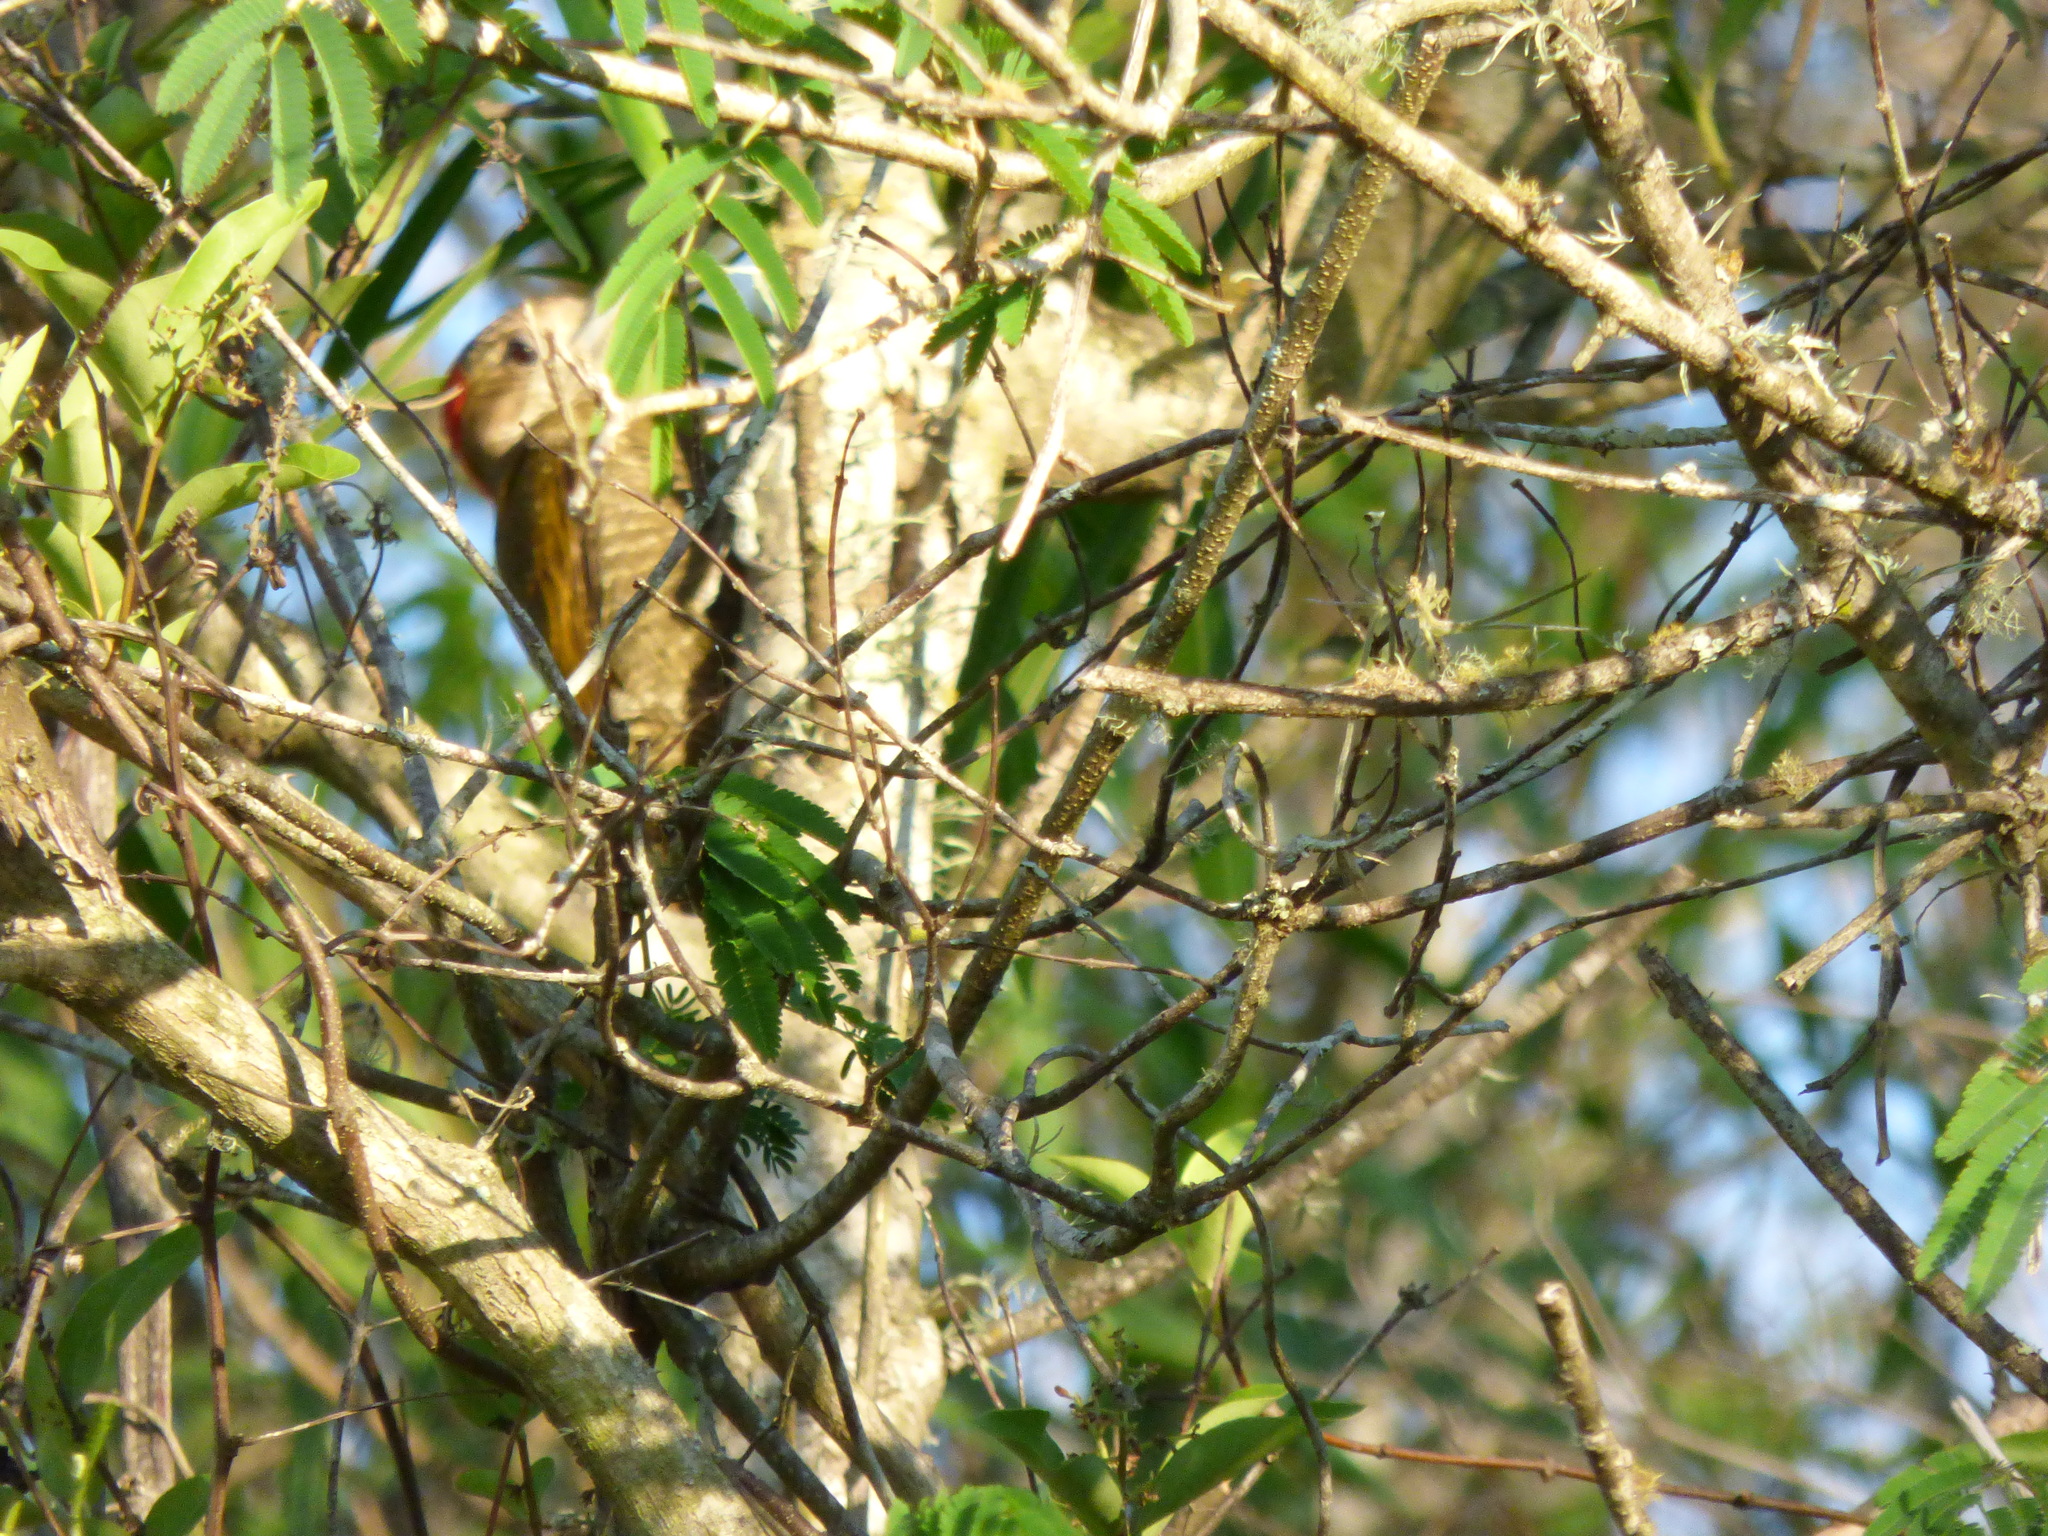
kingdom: Animalia
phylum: Chordata
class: Aves
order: Piciformes
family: Picidae
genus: Veniliornis
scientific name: Veniliornis passerinus
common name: Little woodpecker
